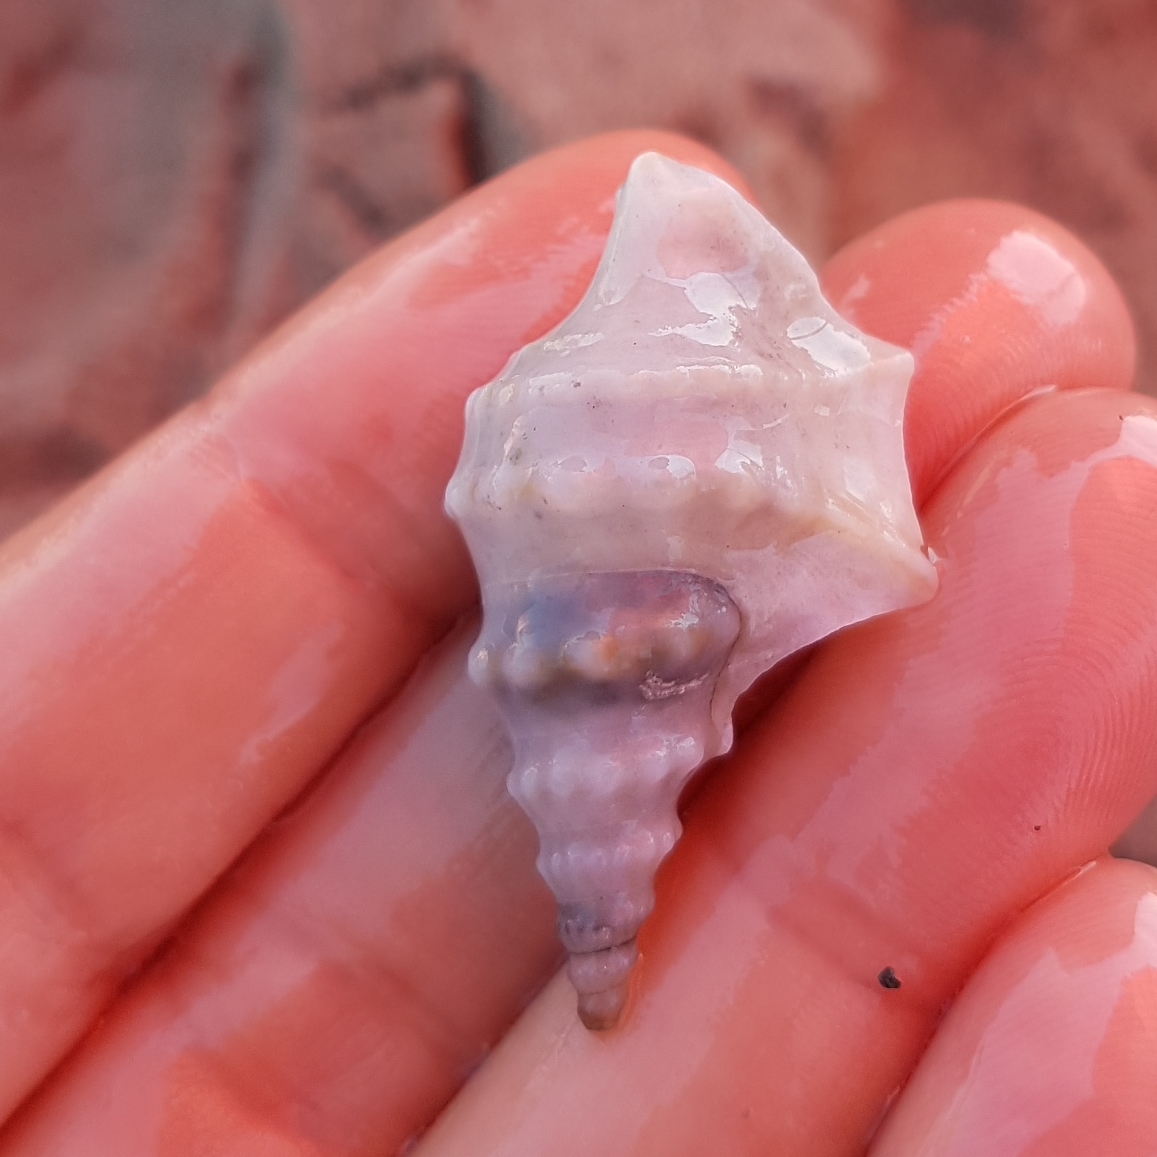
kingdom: Animalia
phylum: Mollusca
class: Gastropoda
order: Littorinimorpha
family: Aporrhaidae
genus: Aporrhais
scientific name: Aporrhais pespelecani
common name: Common pelican’s foot
